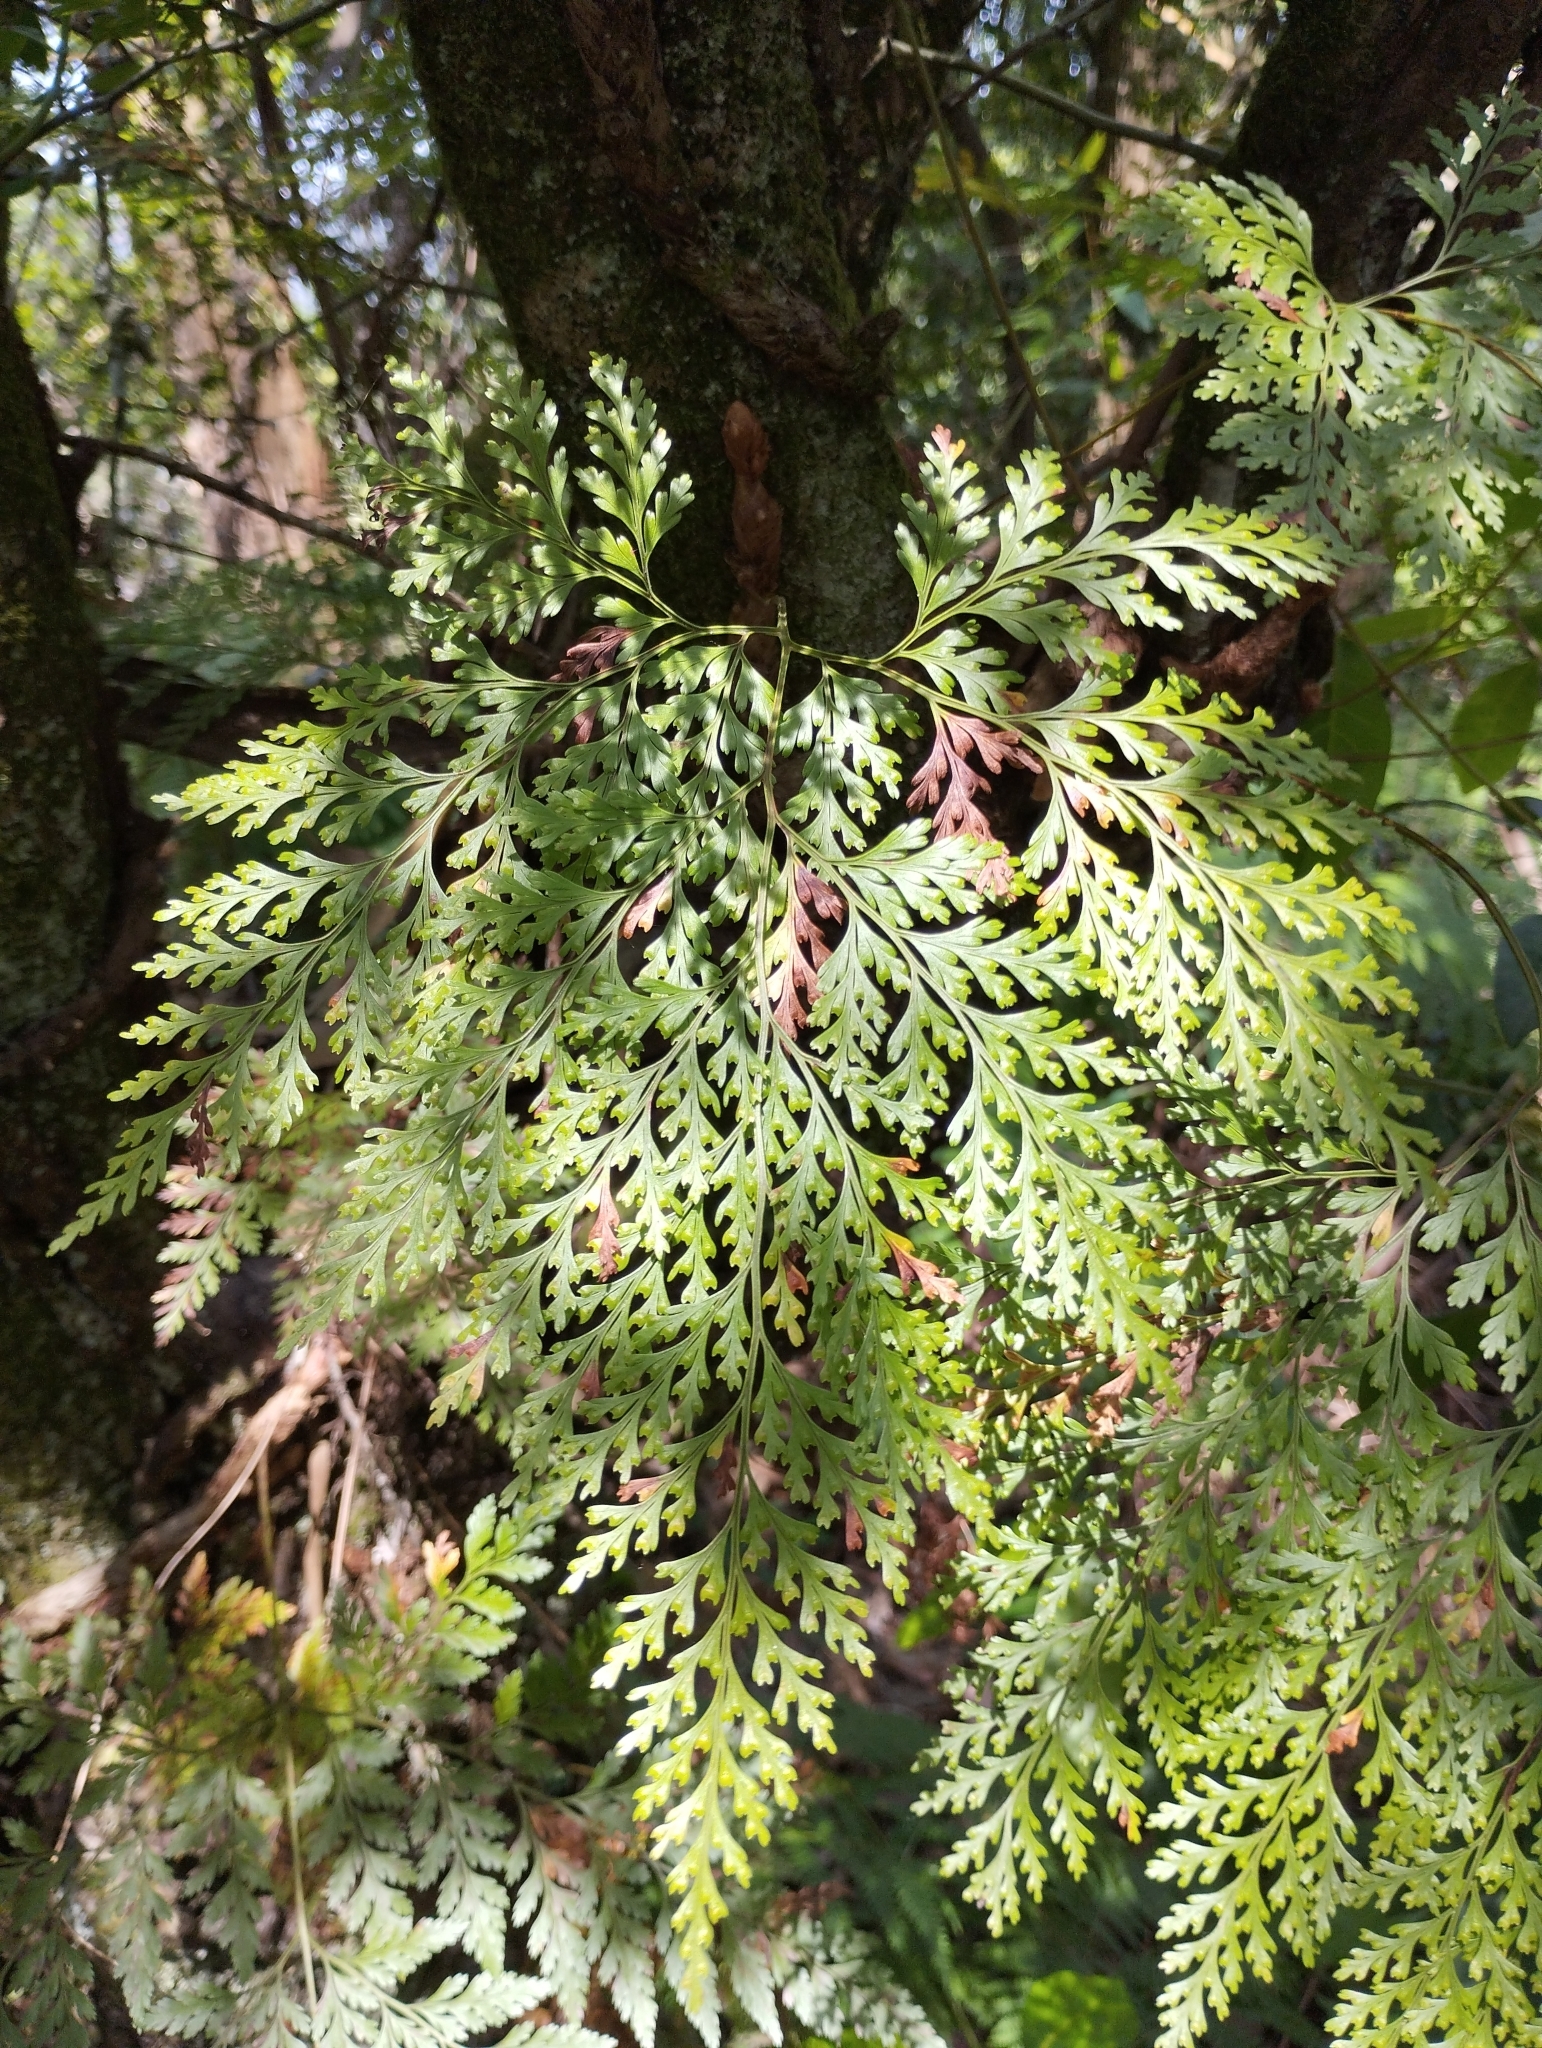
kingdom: Plantae
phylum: Tracheophyta
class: Polypodiopsida
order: Polypodiales
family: Davalliaceae
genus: Davallia
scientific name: Davallia canariensis
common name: Hare's-foot fern
